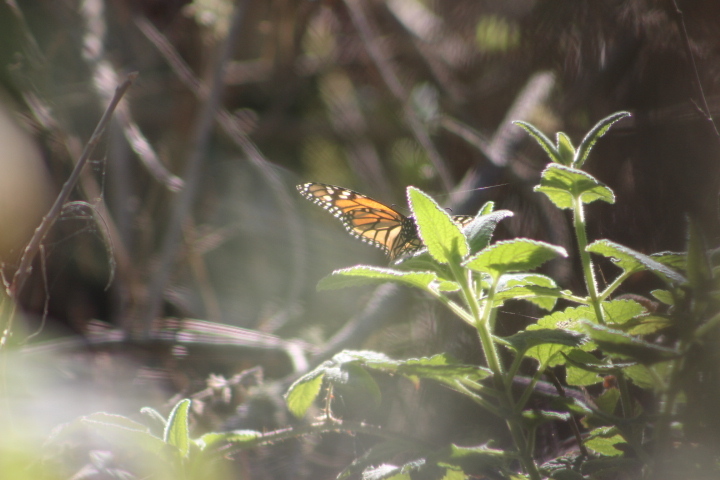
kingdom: Animalia
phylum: Arthropoda
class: Insecta
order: Lepidoptera
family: Nymphalidae
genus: Danaus
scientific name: Danaus plexippus
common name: Monarch
